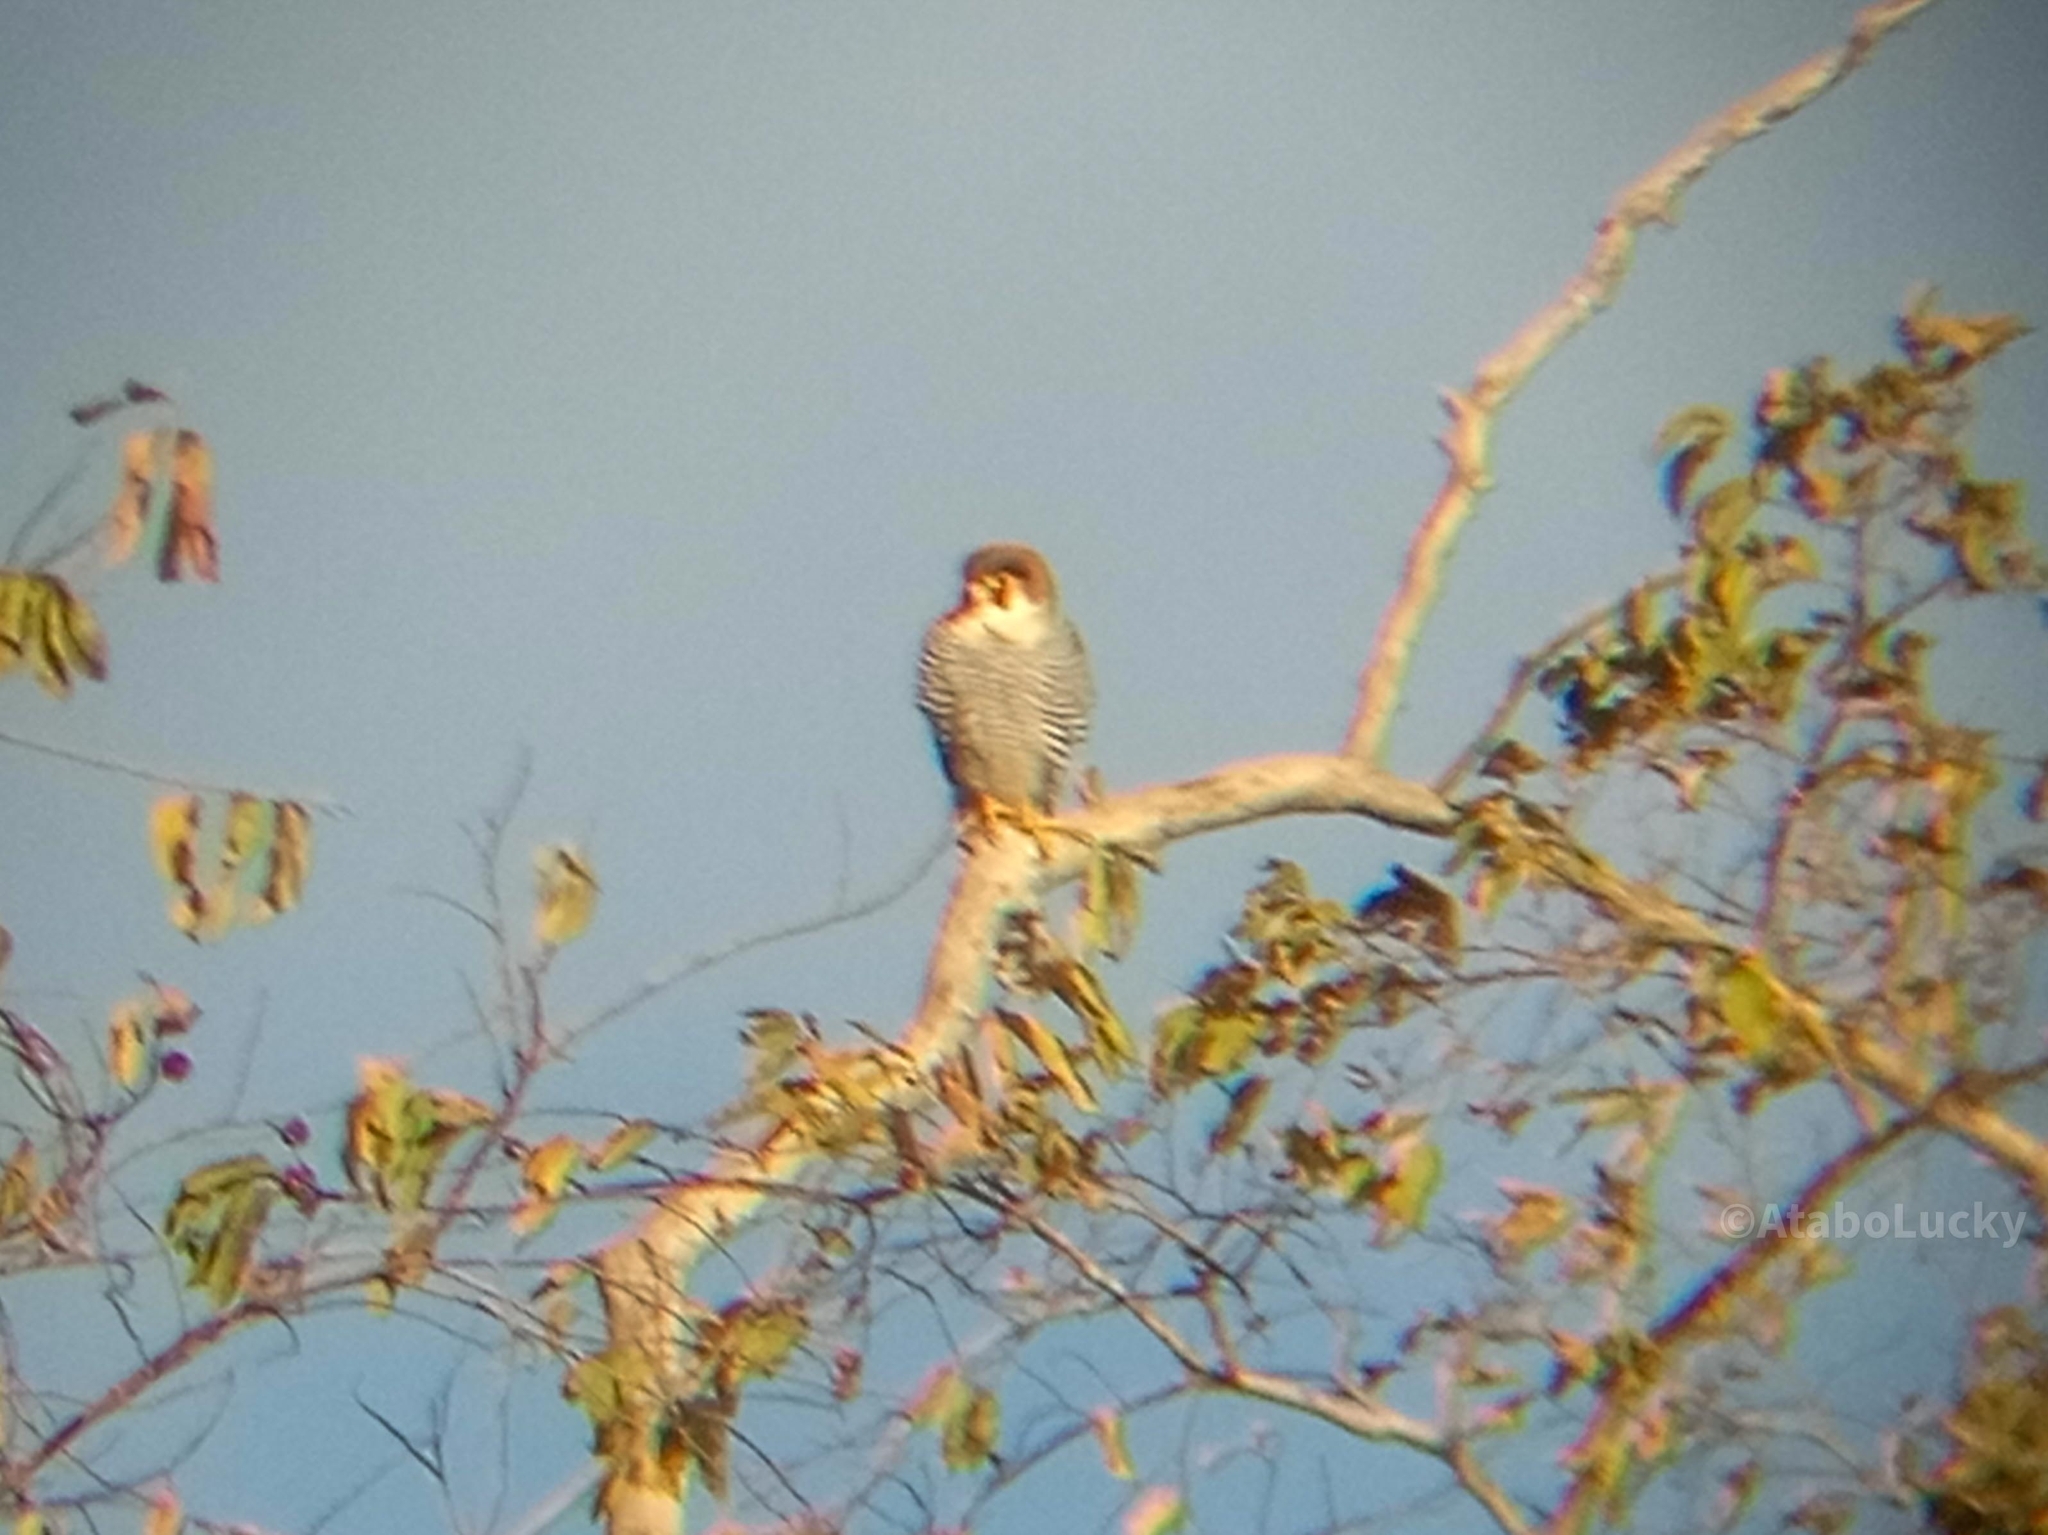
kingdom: Animalia
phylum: Chordata
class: Aves
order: Falconiformes
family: Falconidae
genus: Falco
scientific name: Falco chicquera
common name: Red-necked falcon
